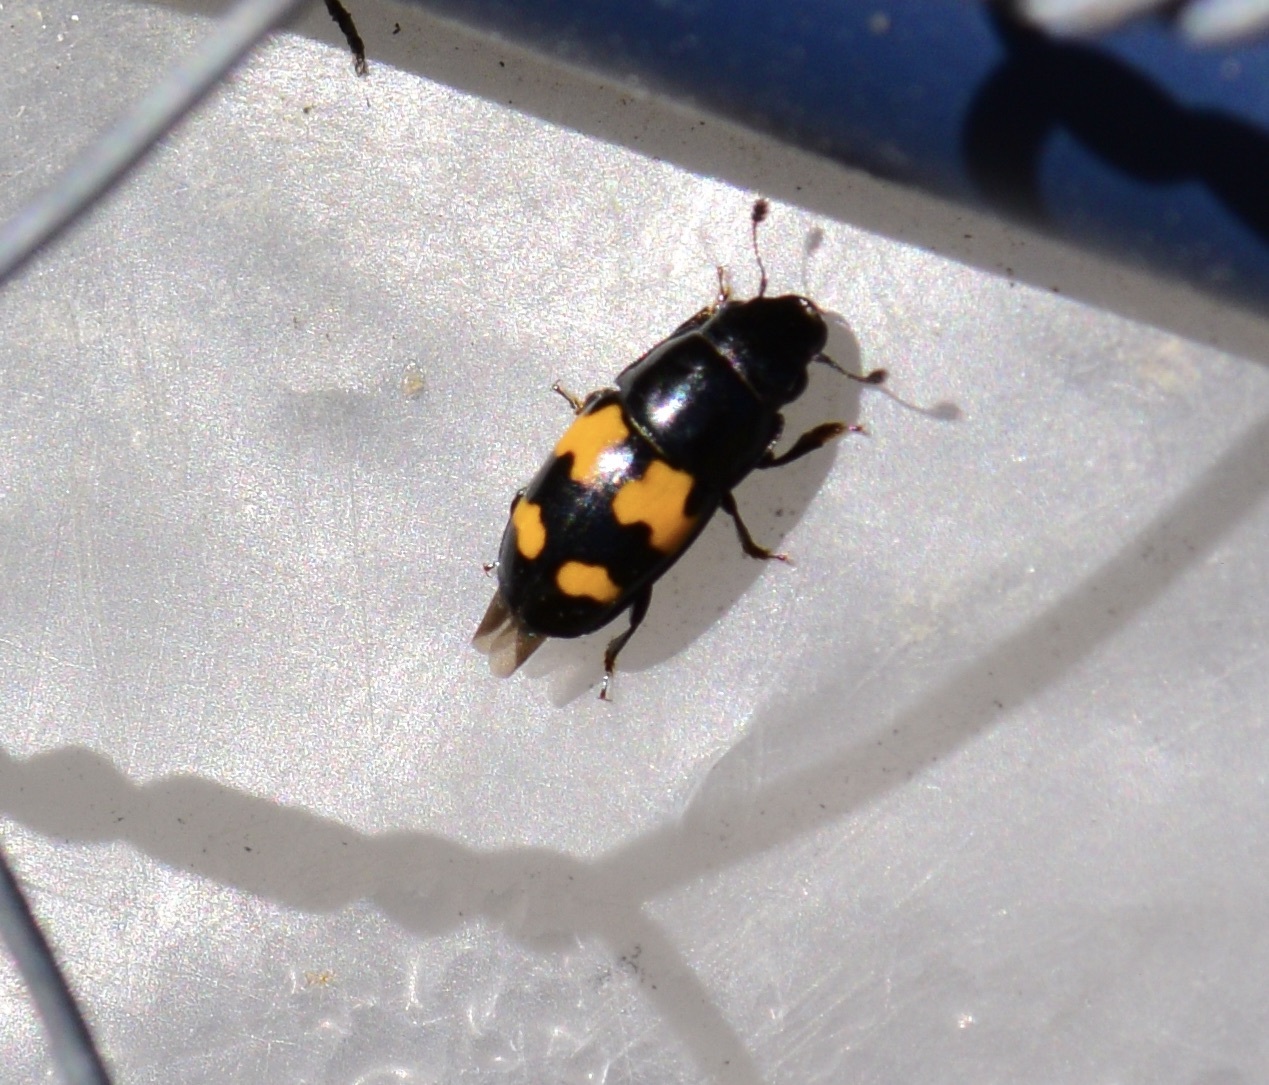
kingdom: Animalia
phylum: Arthropoda
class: Insecta
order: Coleoptera
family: Nitidulidae
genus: Glischrochilus
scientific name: Glischrochilus fasciatus
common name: Picnic beetle
